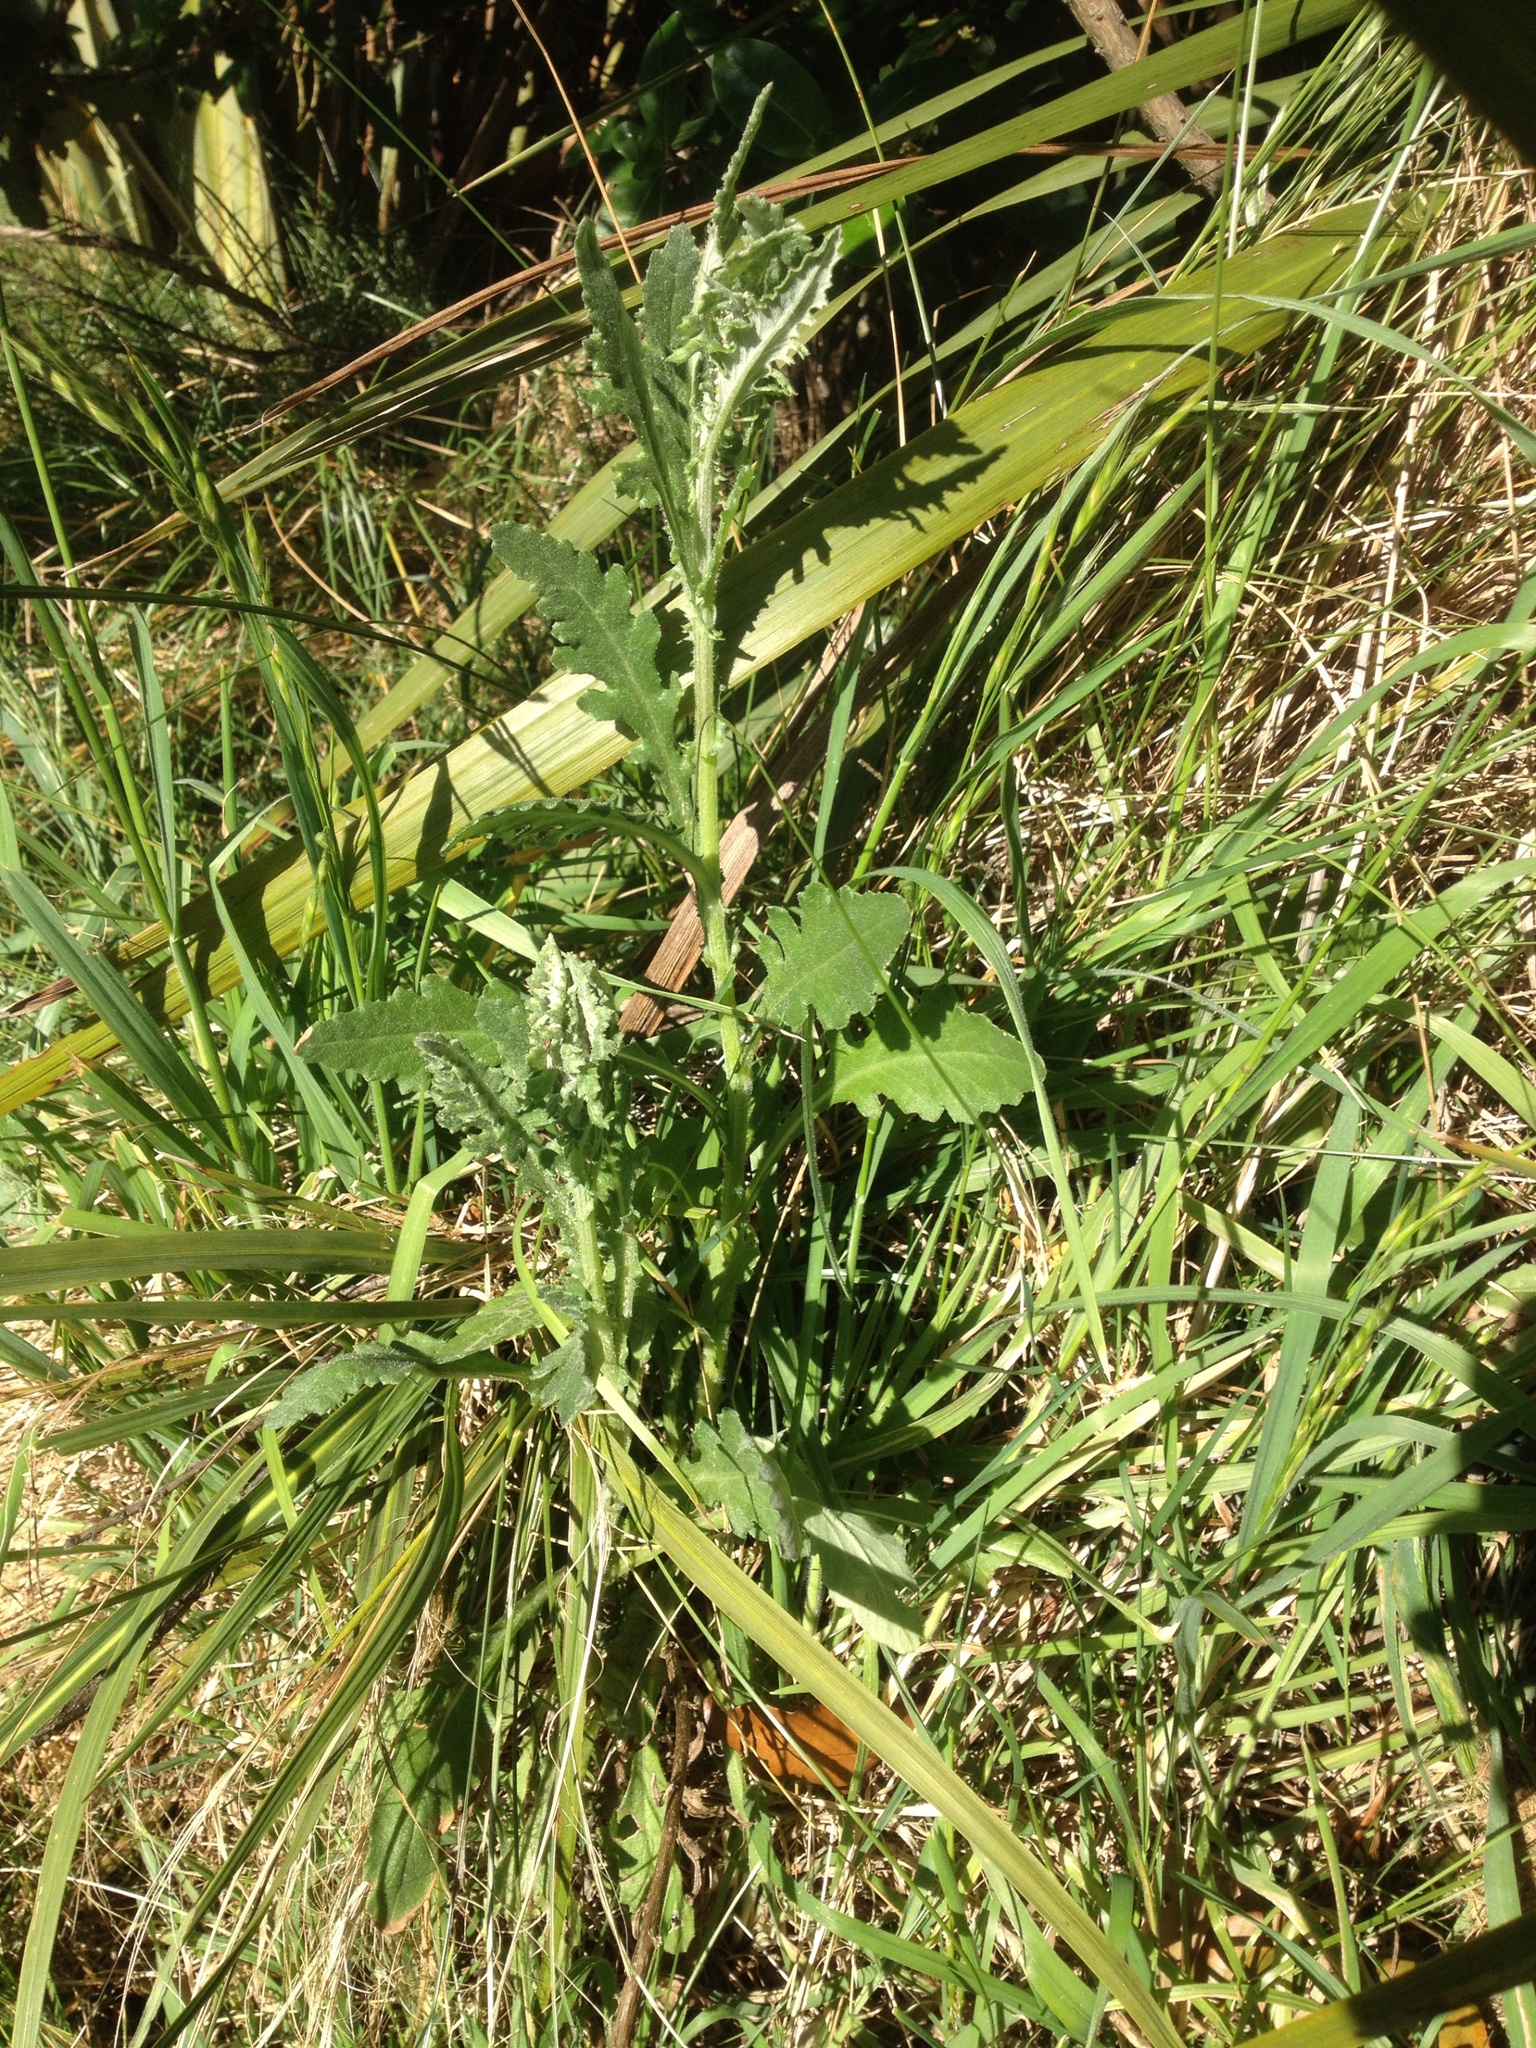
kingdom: Plantae
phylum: Tracheophyta
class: Magnoliopsida
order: Asterales
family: Asteraceae
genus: Senecio
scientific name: Senecio glomeratus
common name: Cutleaf burnweed
